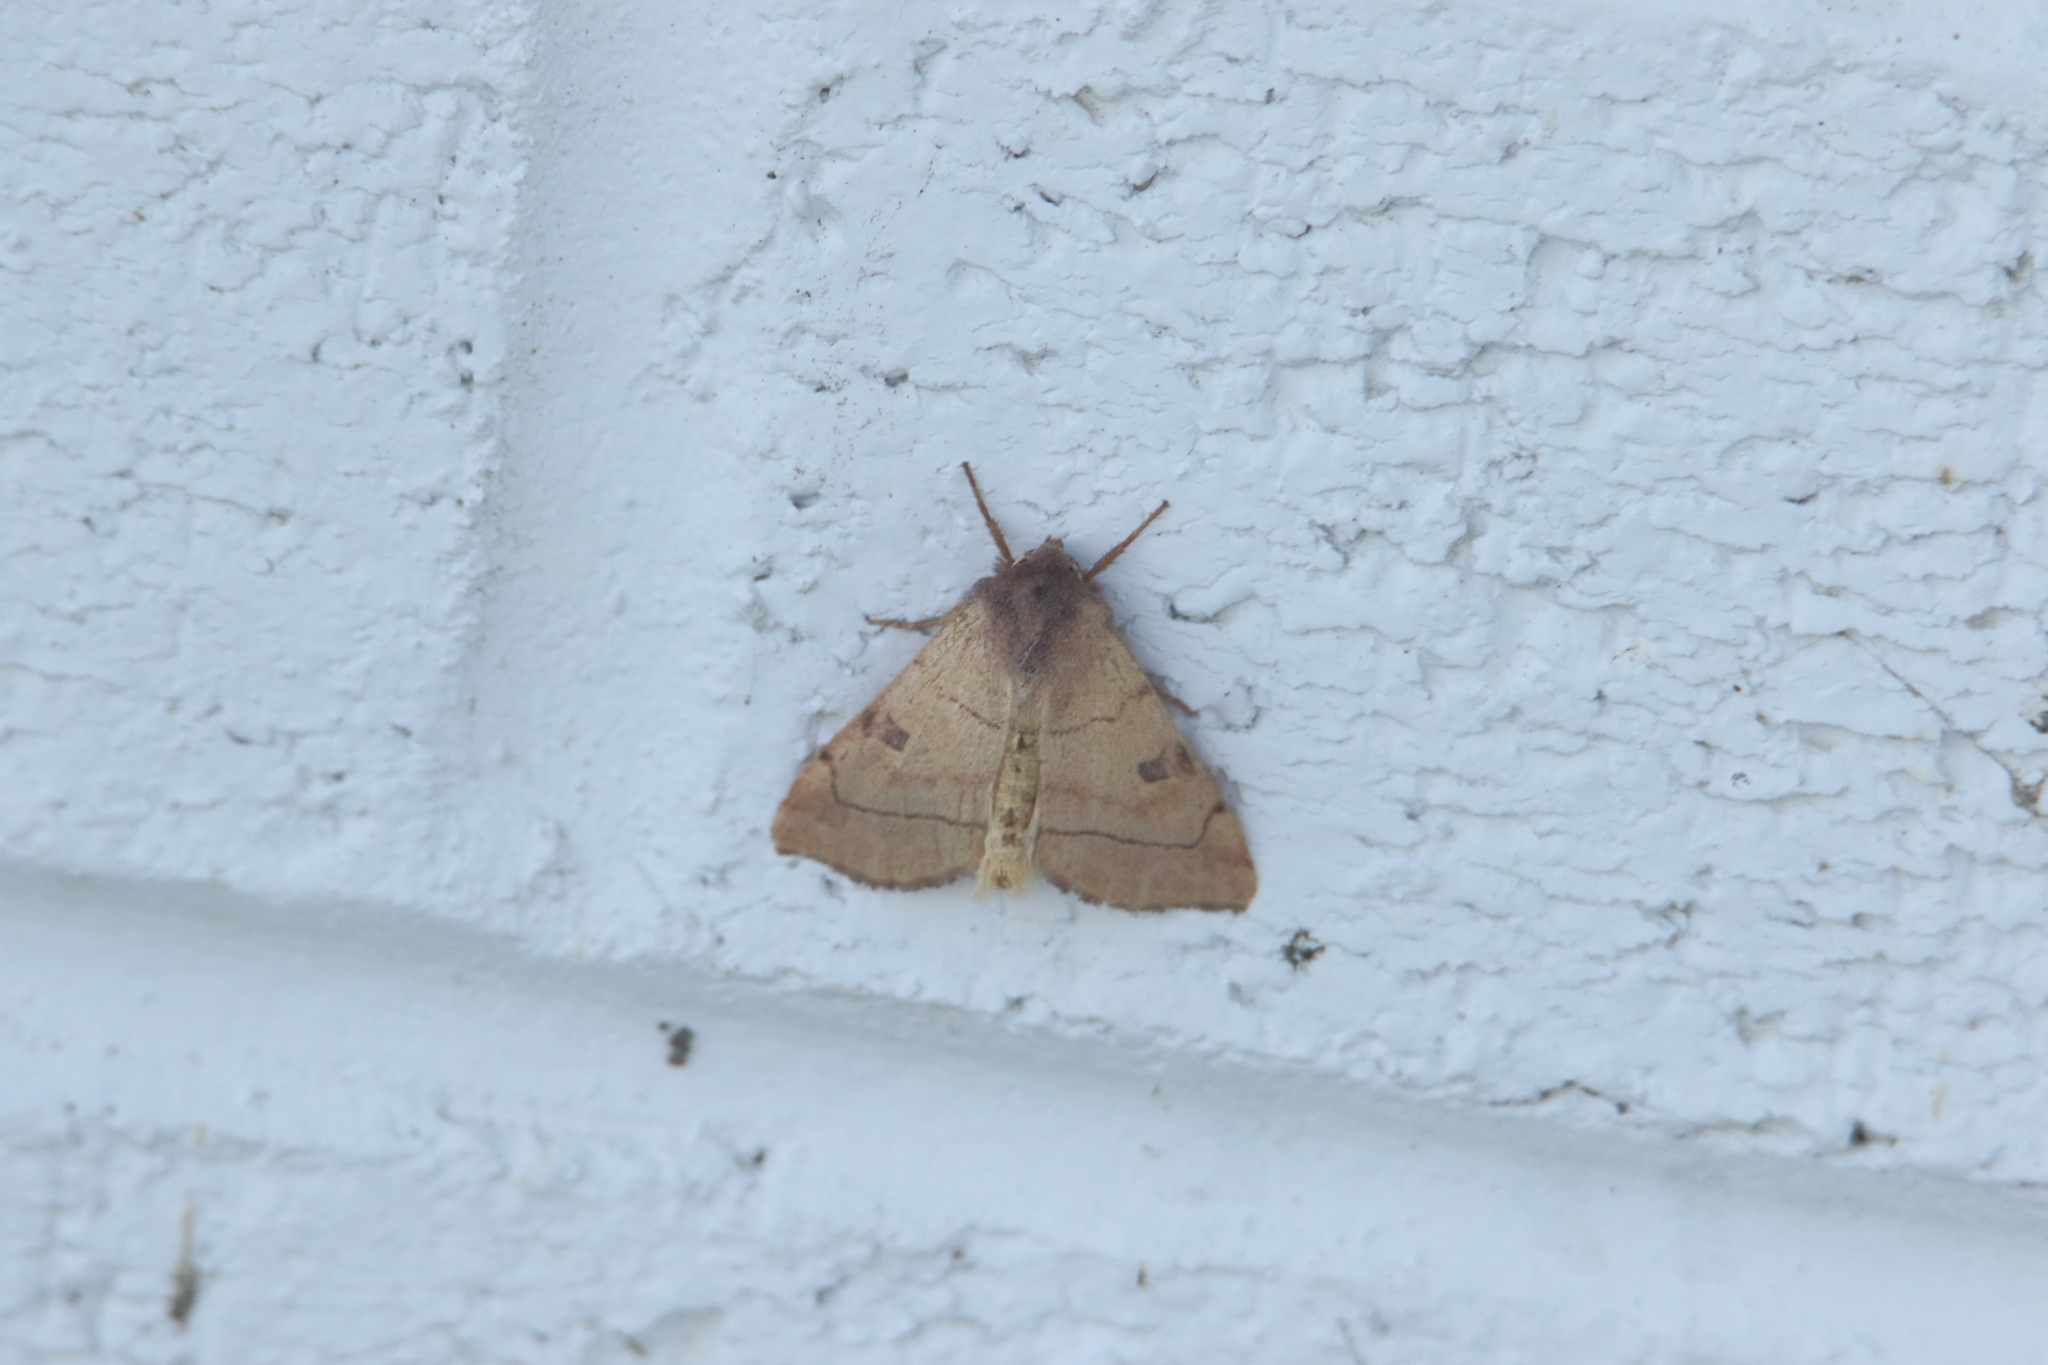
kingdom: Animalia
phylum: Arthropoda
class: Insecta
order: Lepidoptera
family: Noctuidae
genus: Choephora
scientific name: Choephora fungorum
